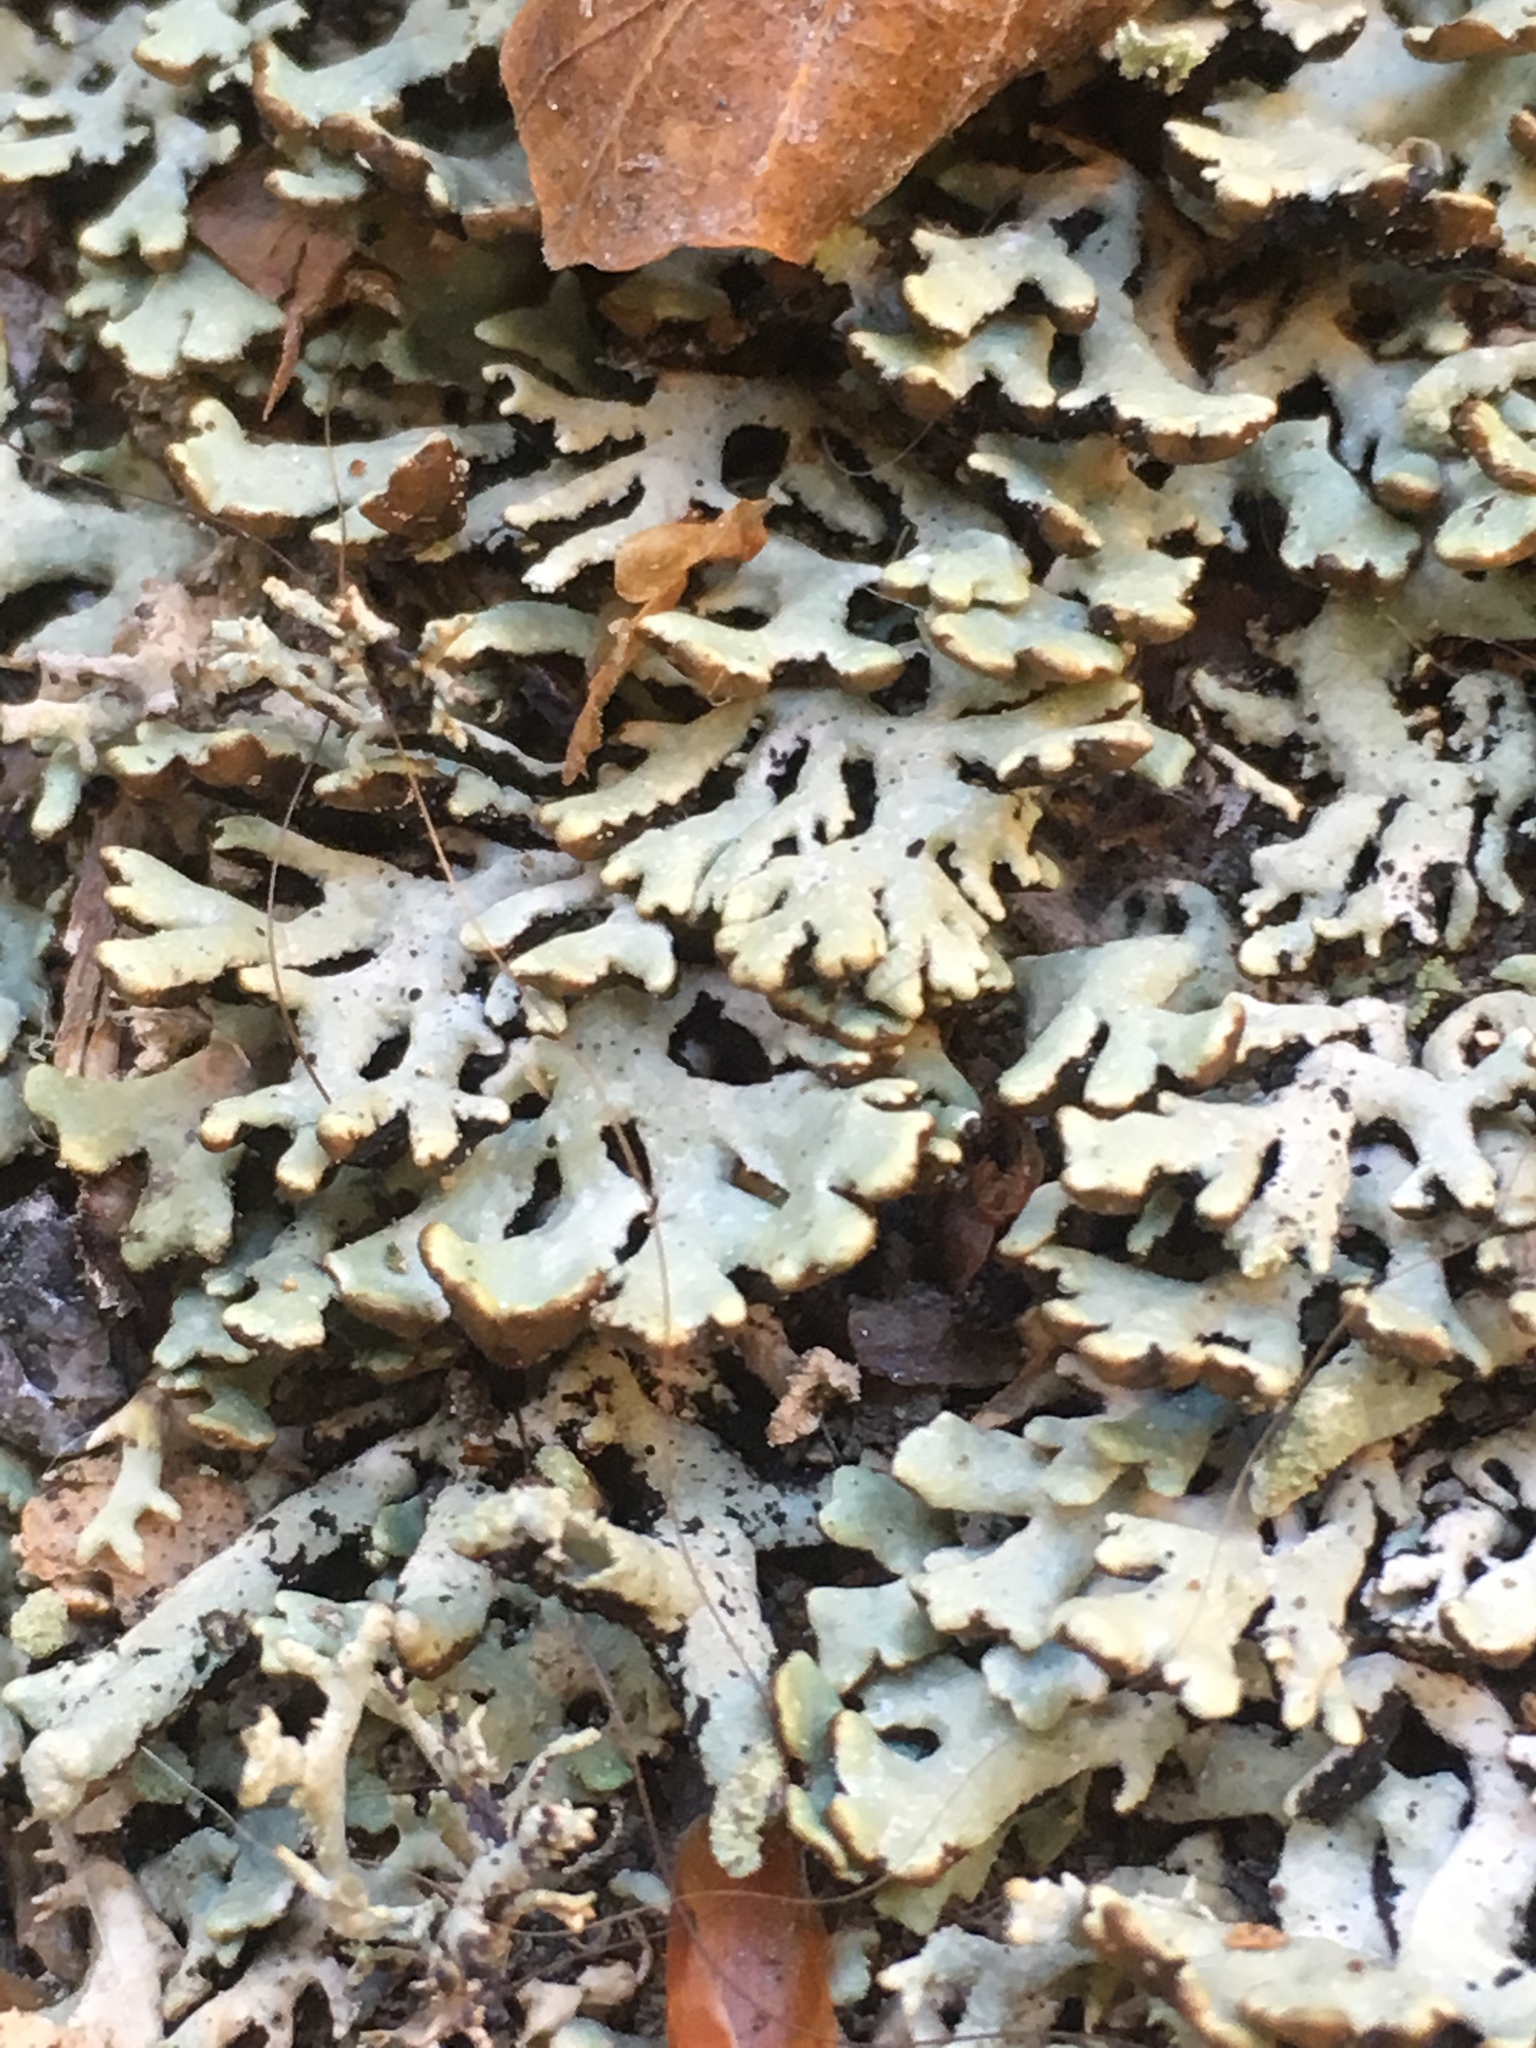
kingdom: Fungi
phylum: Ascomycota
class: Lecanoromycetes
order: Lecanorales
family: Parmeliaceae
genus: Hypogymnia
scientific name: Hypogymnia physodes
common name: Dark crottle
